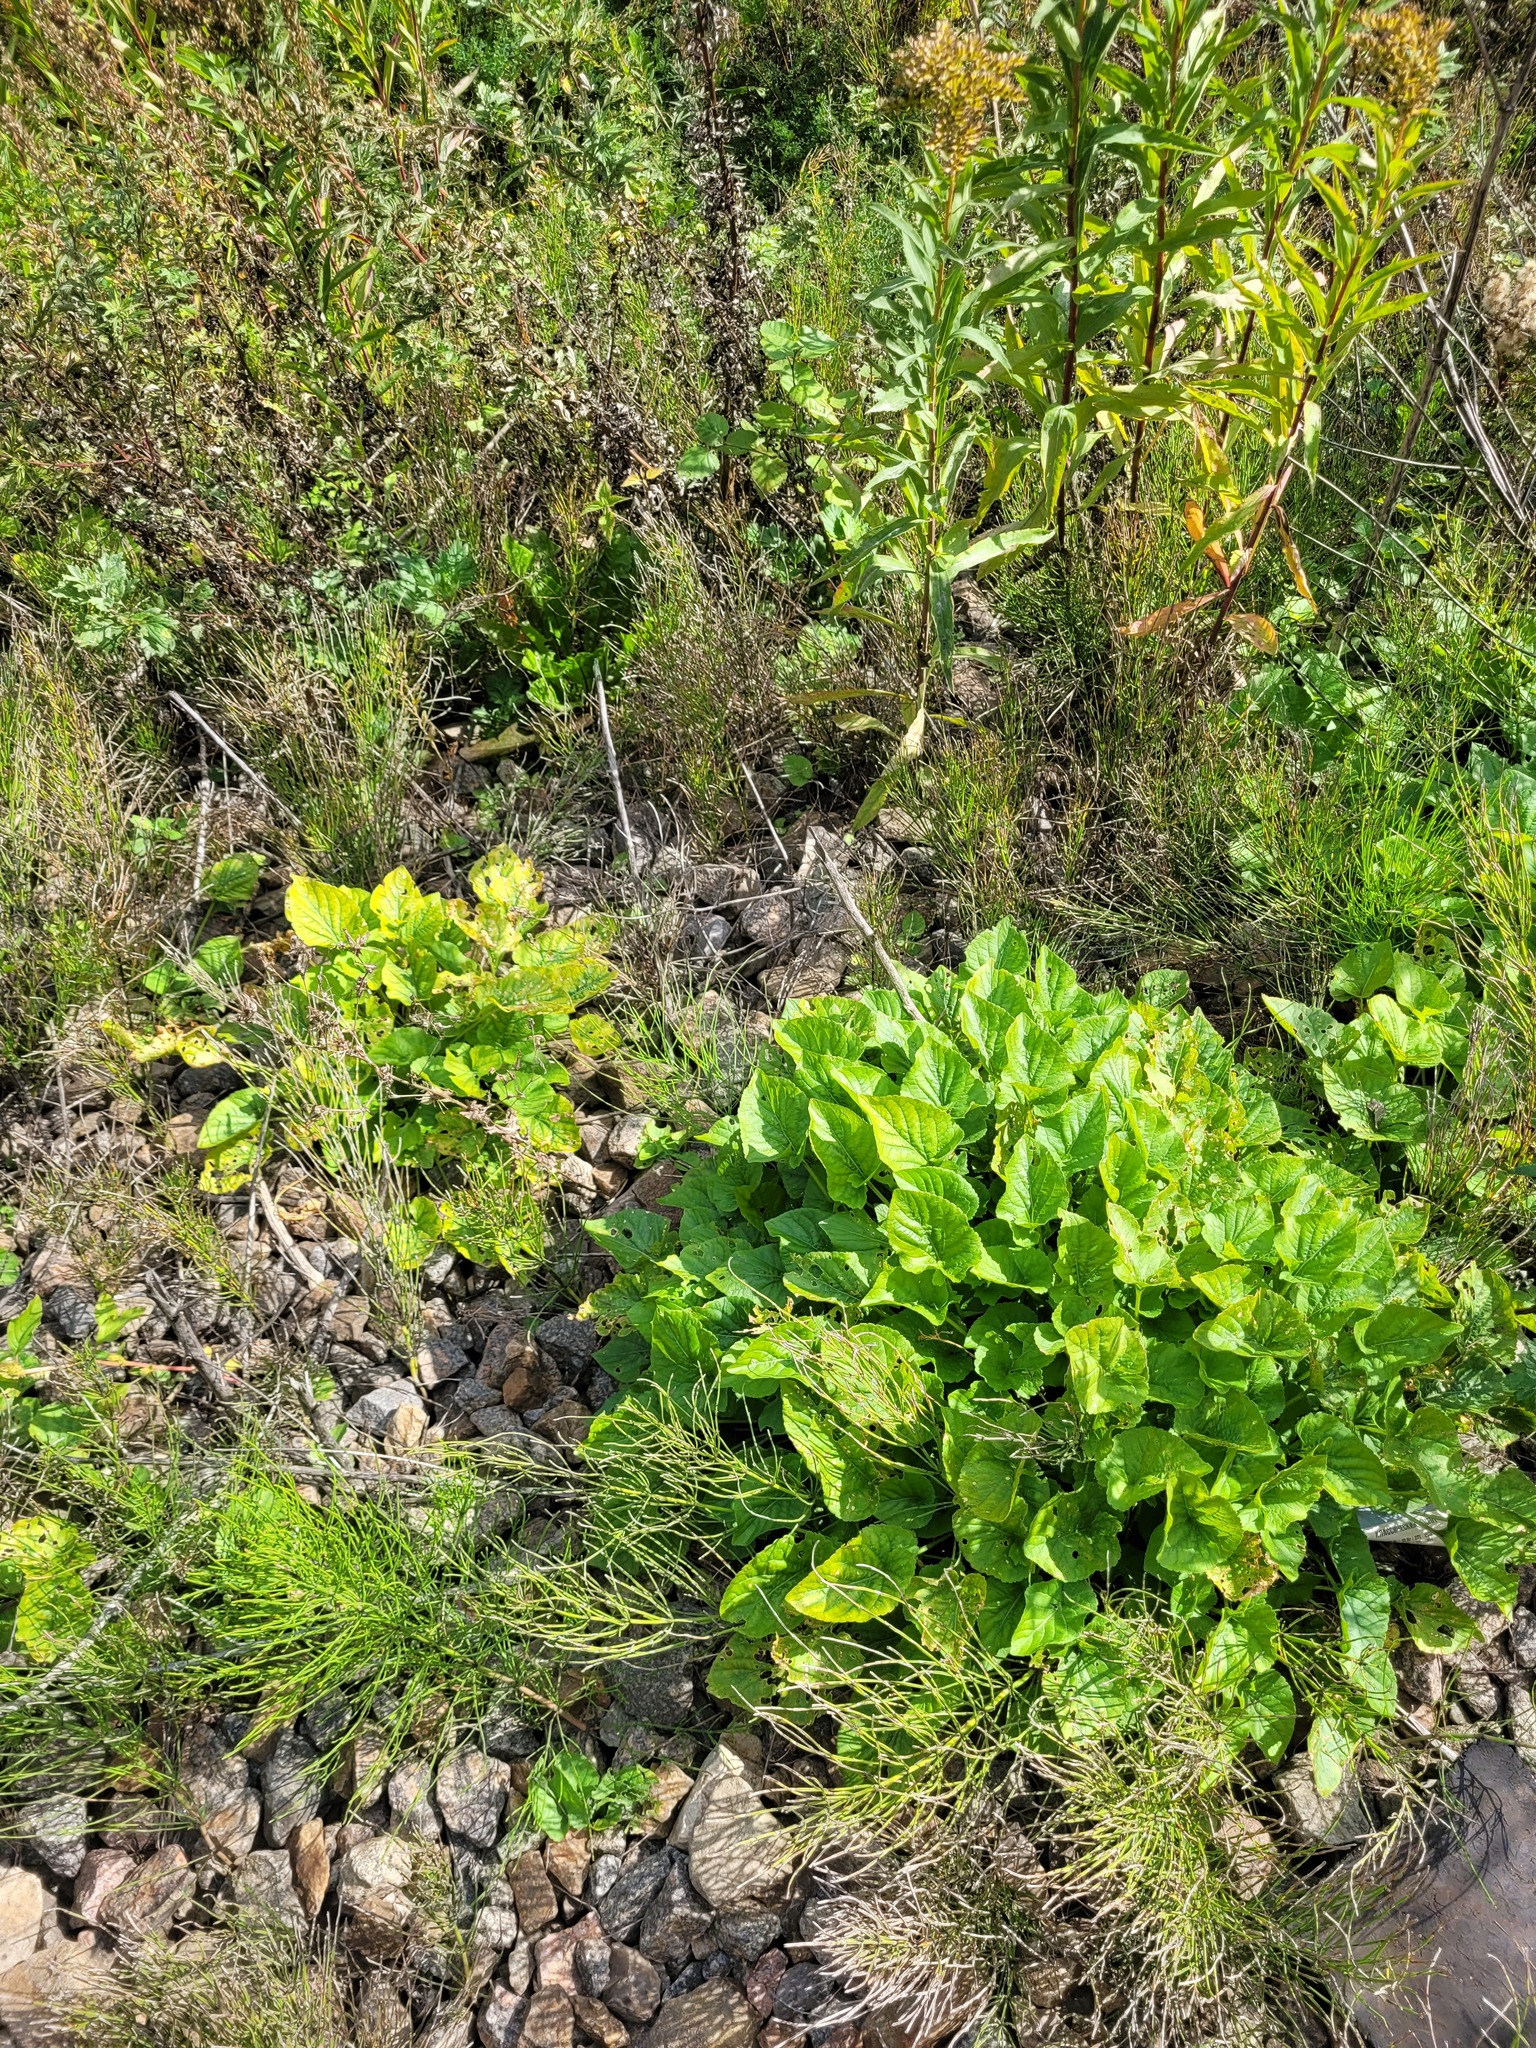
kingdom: Plantae
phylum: Tracheophyta
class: Magnoliopsida
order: Malpighiales
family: Violaceae
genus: Viola
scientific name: Viola hirta
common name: Hairy violet
